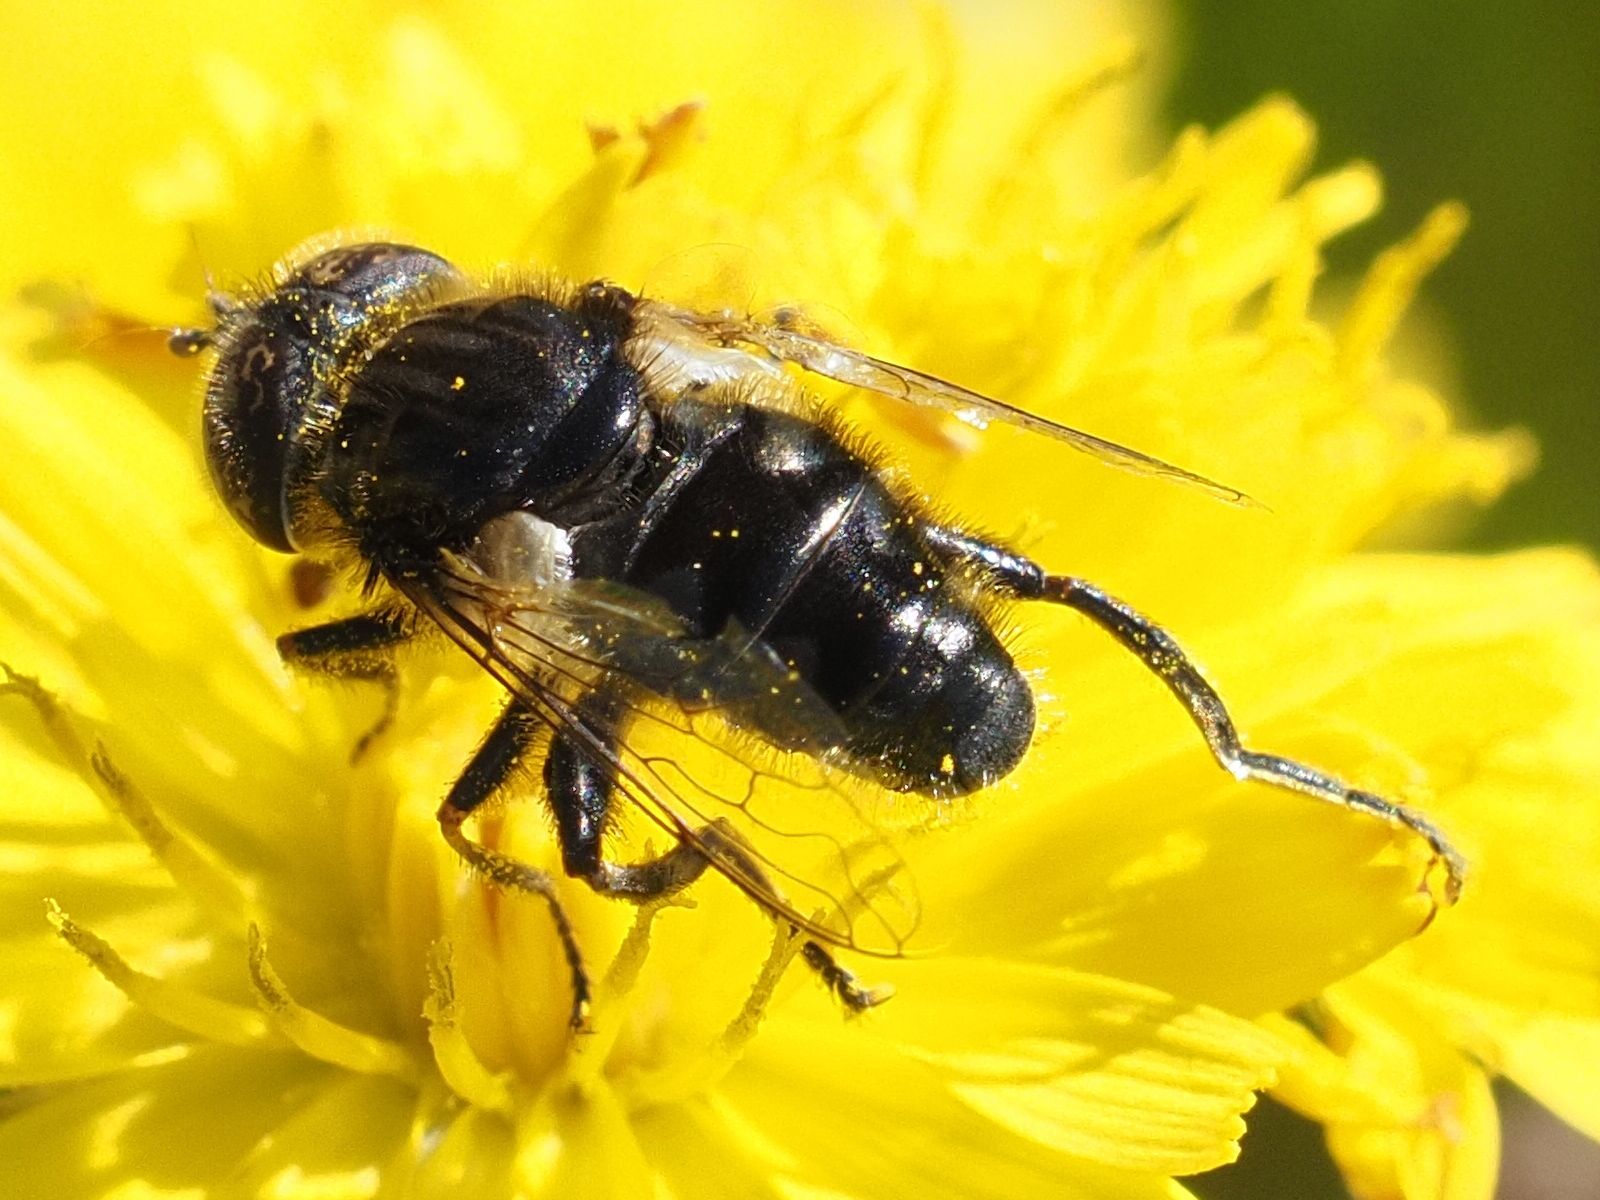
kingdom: Animalia
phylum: Arthropoda
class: Insecta
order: Diptera
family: Syrphidae
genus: Eristalinus
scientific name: Eristalinus sepulchralis
